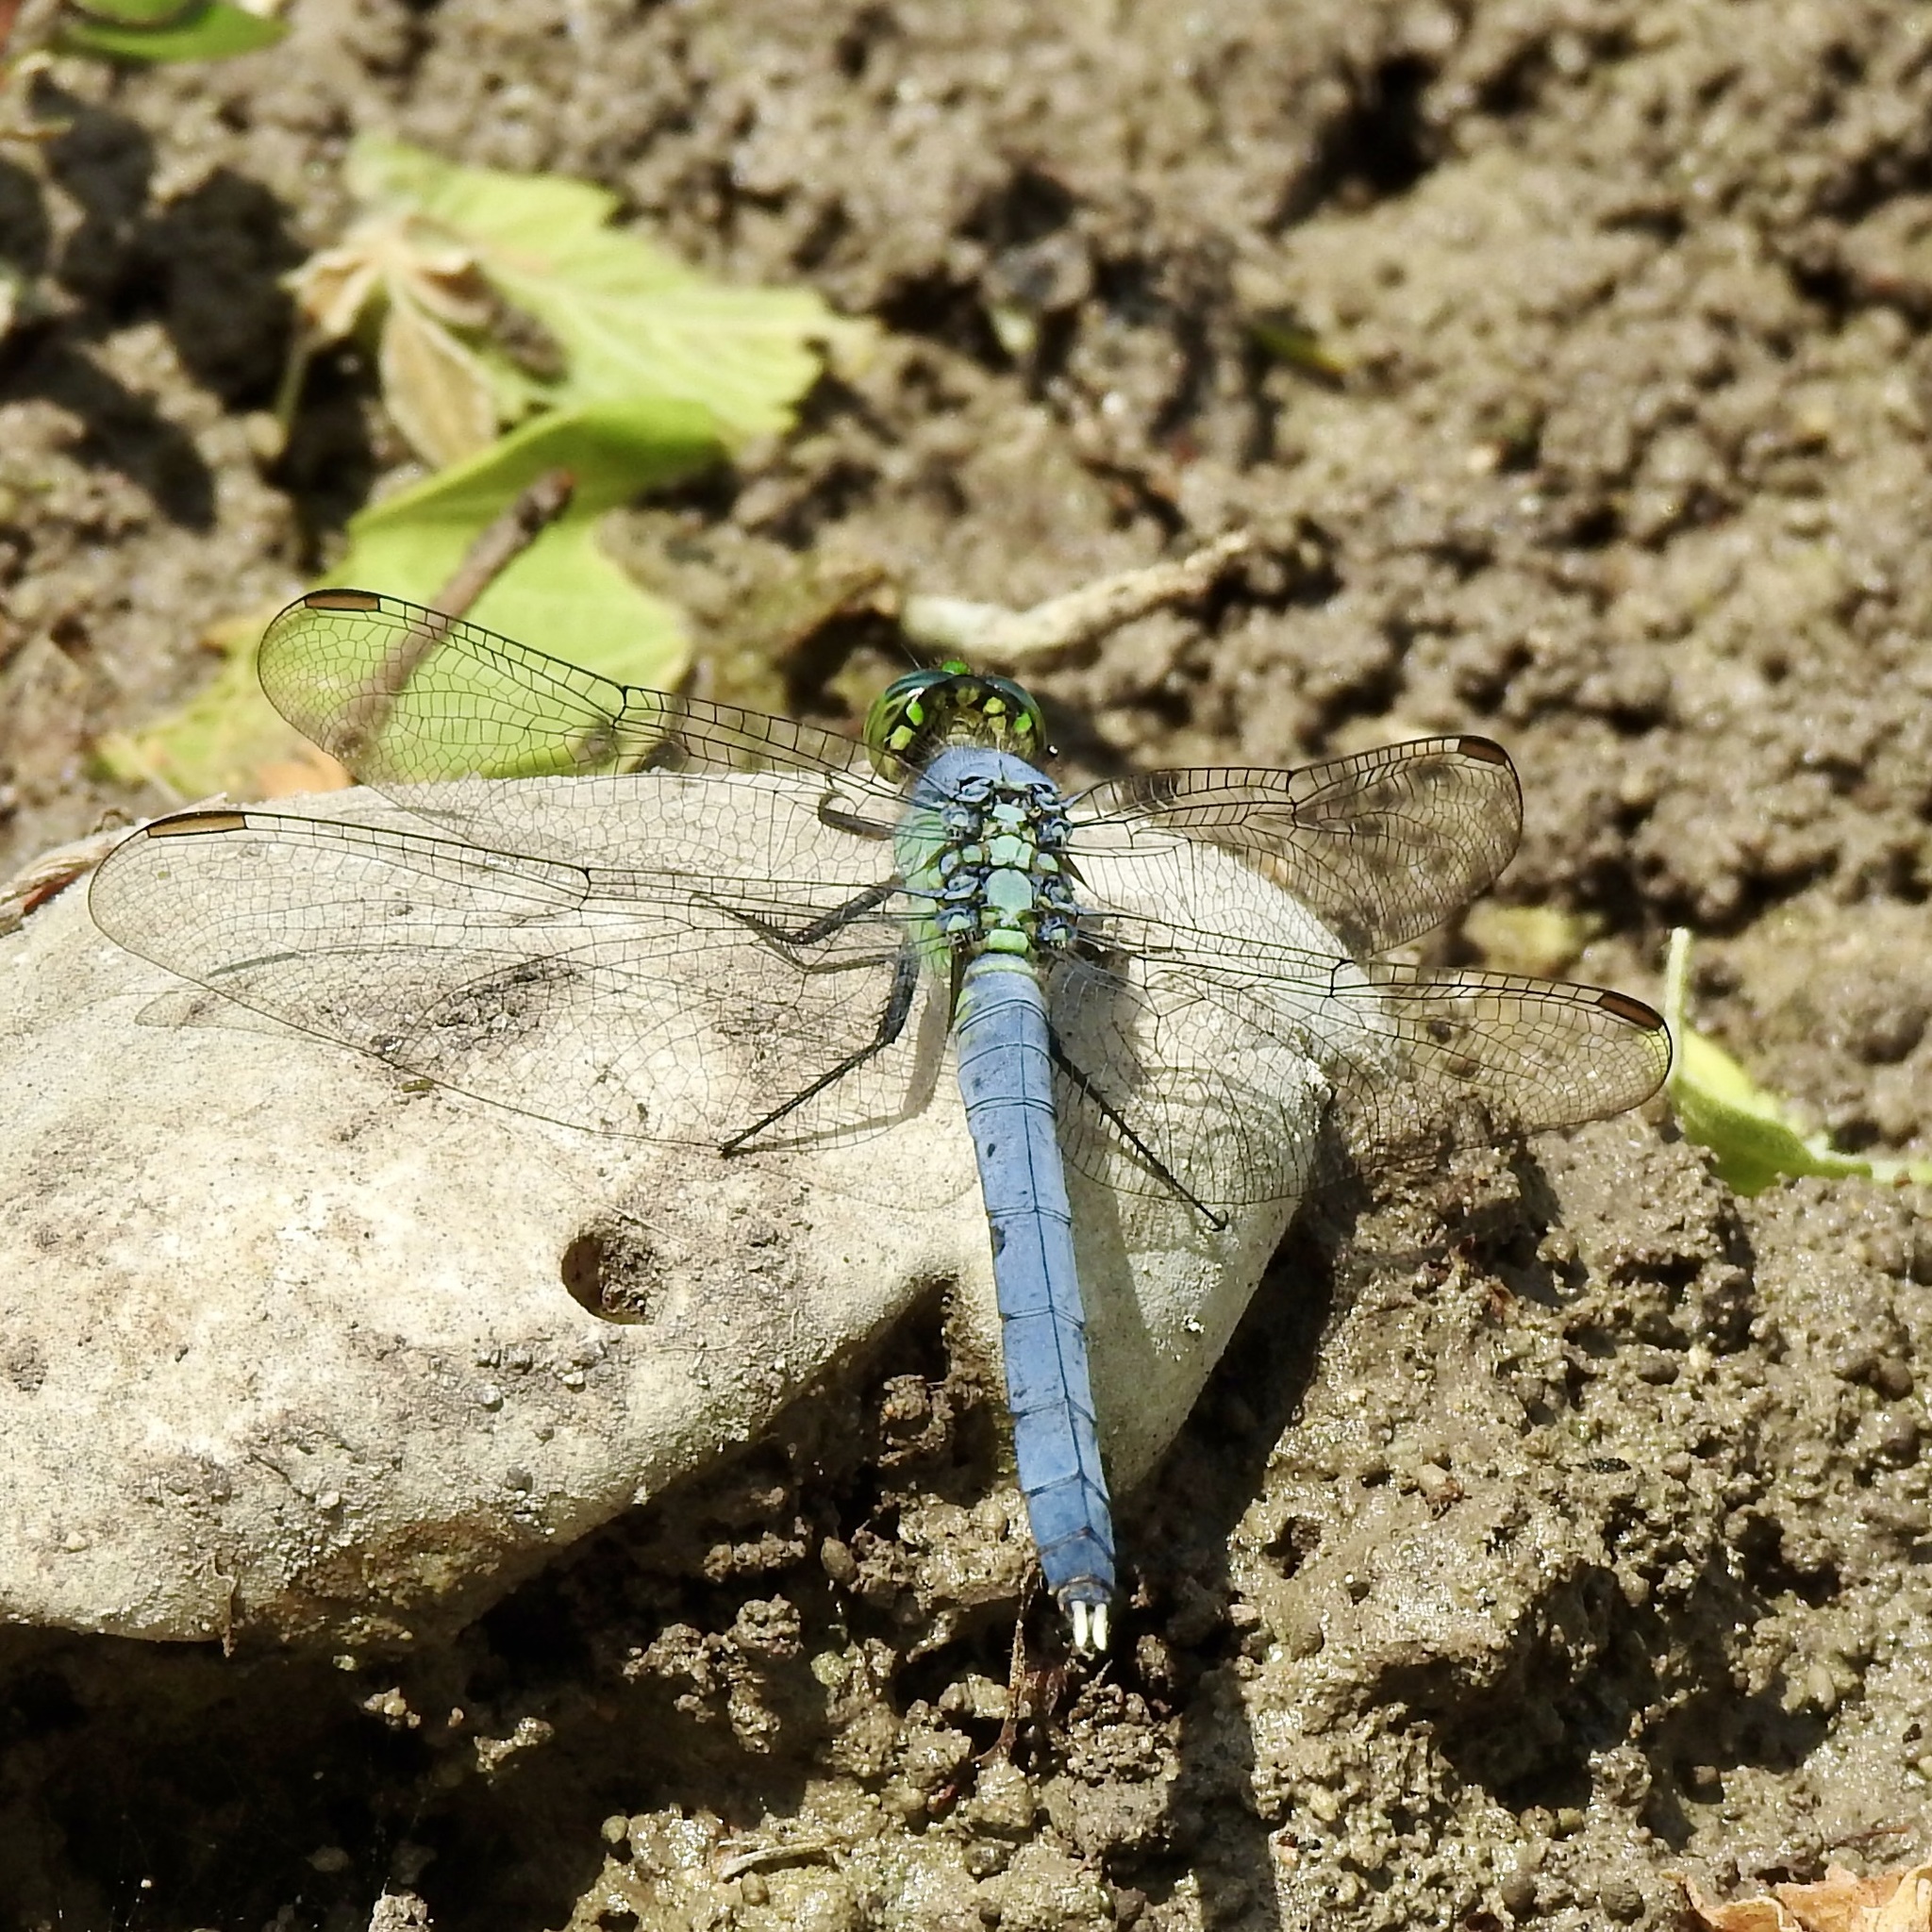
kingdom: Animalia
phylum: Arthropoda
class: Insecta
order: Odonata
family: Libellulidae
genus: Erythemis
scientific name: Erythemis simplicicollis
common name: Eastern pondhawk
